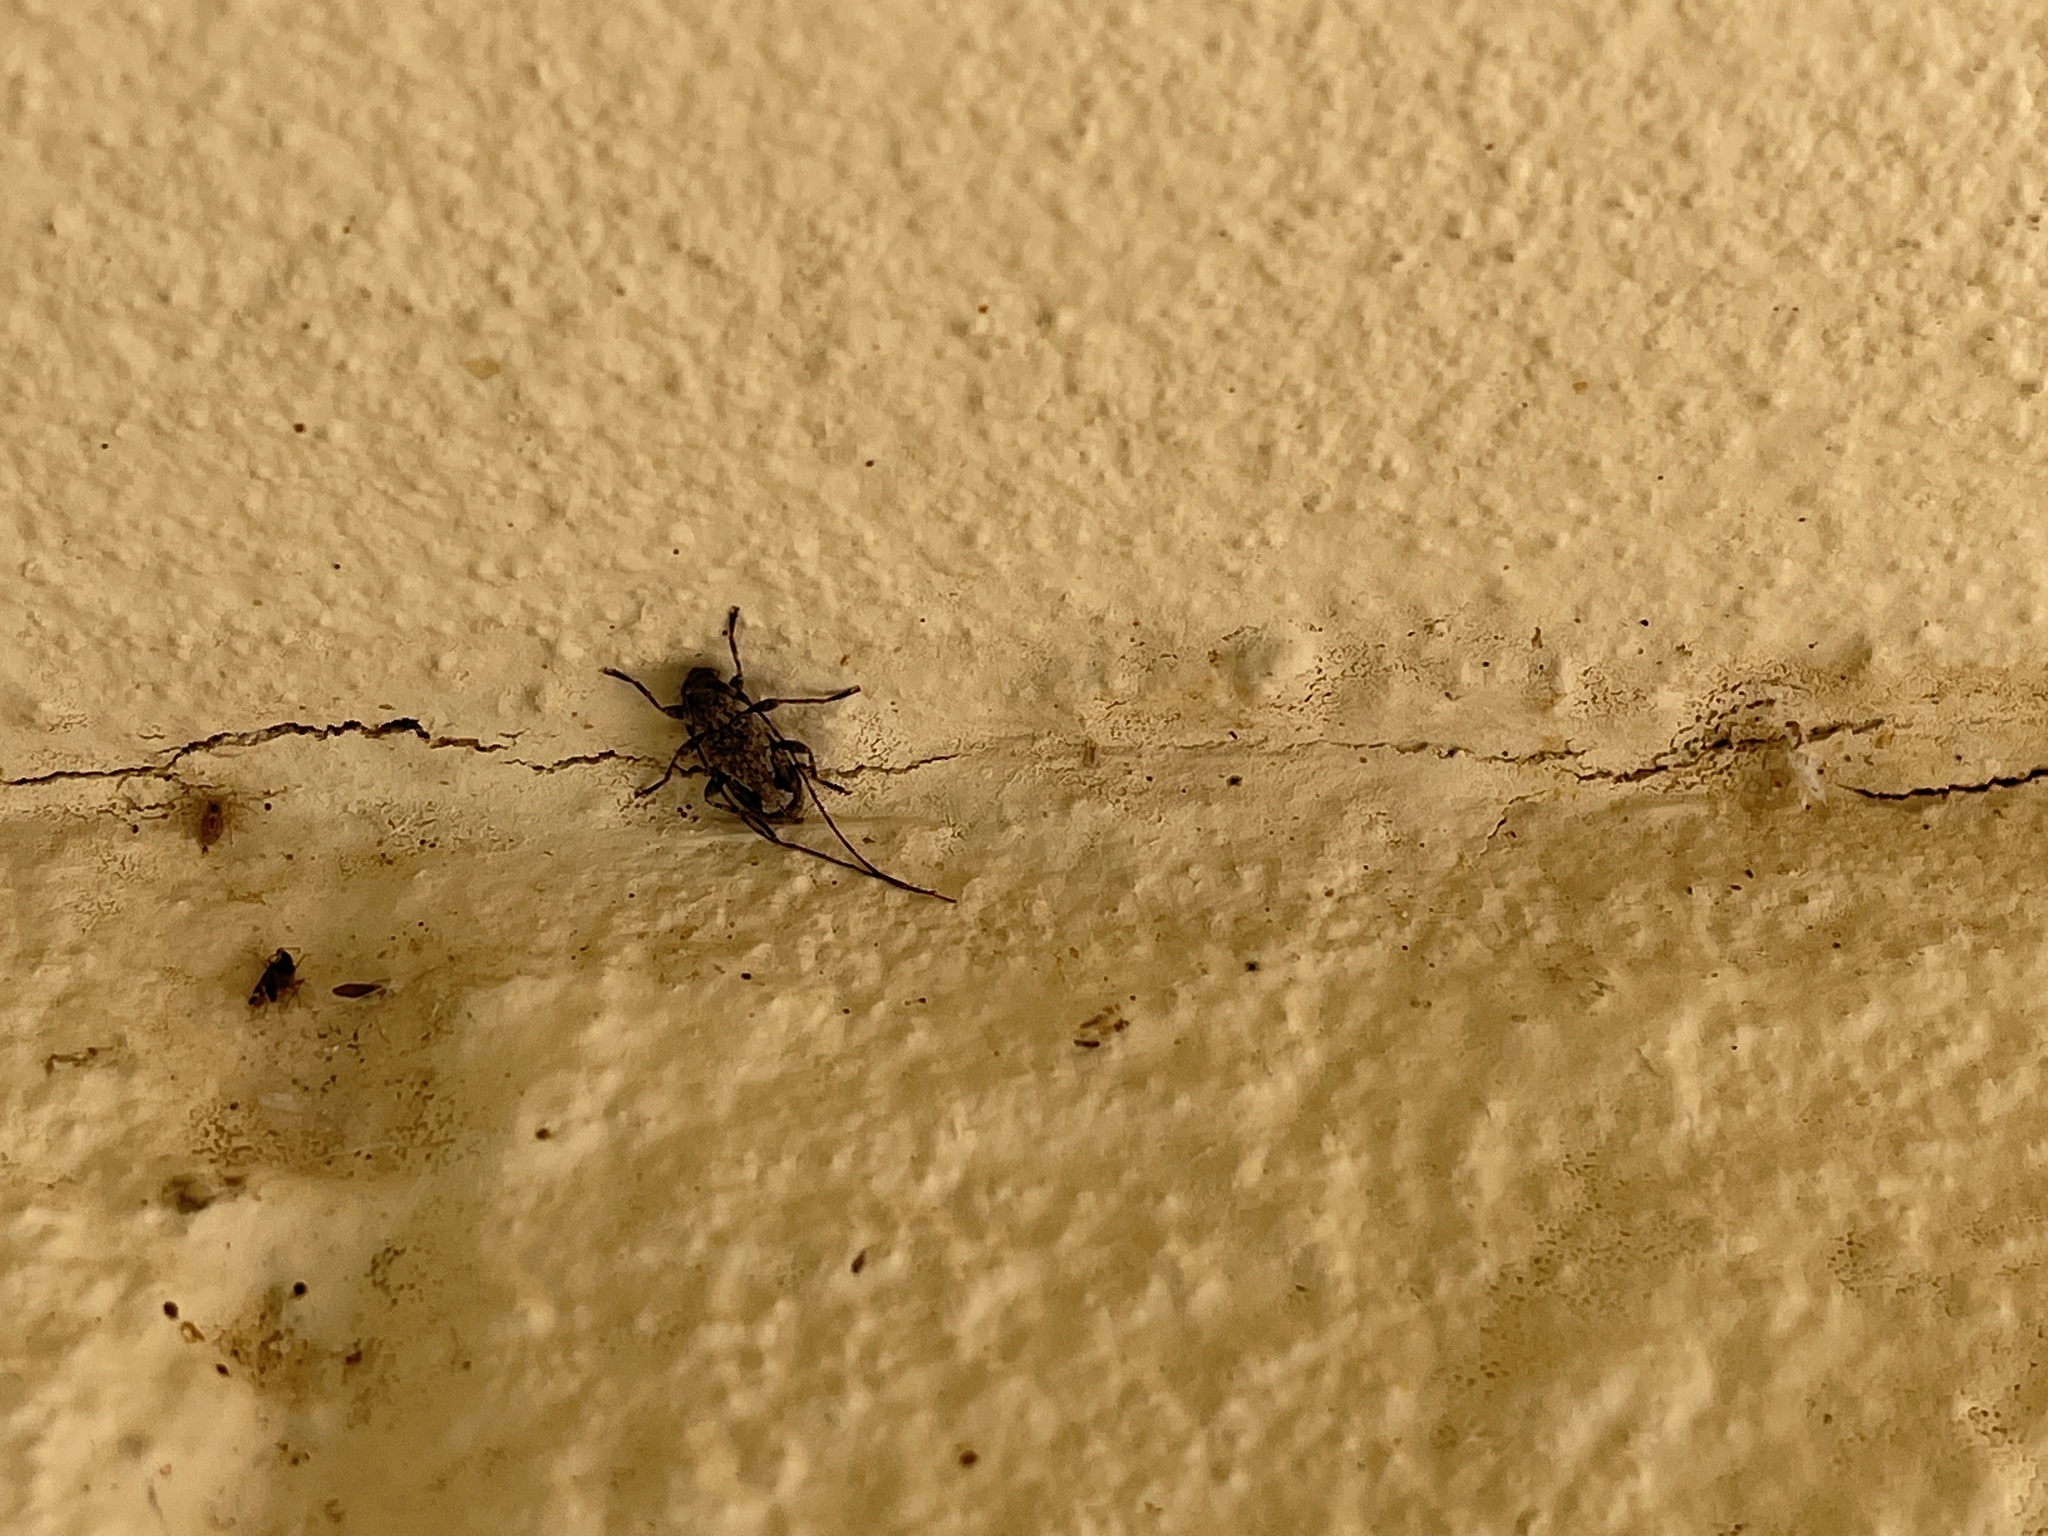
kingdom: Animalia
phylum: Arthropoda
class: Insecta
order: Coleoptera
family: Cerambycidae
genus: Eutrichillus
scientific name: Eutrichillus canescens
